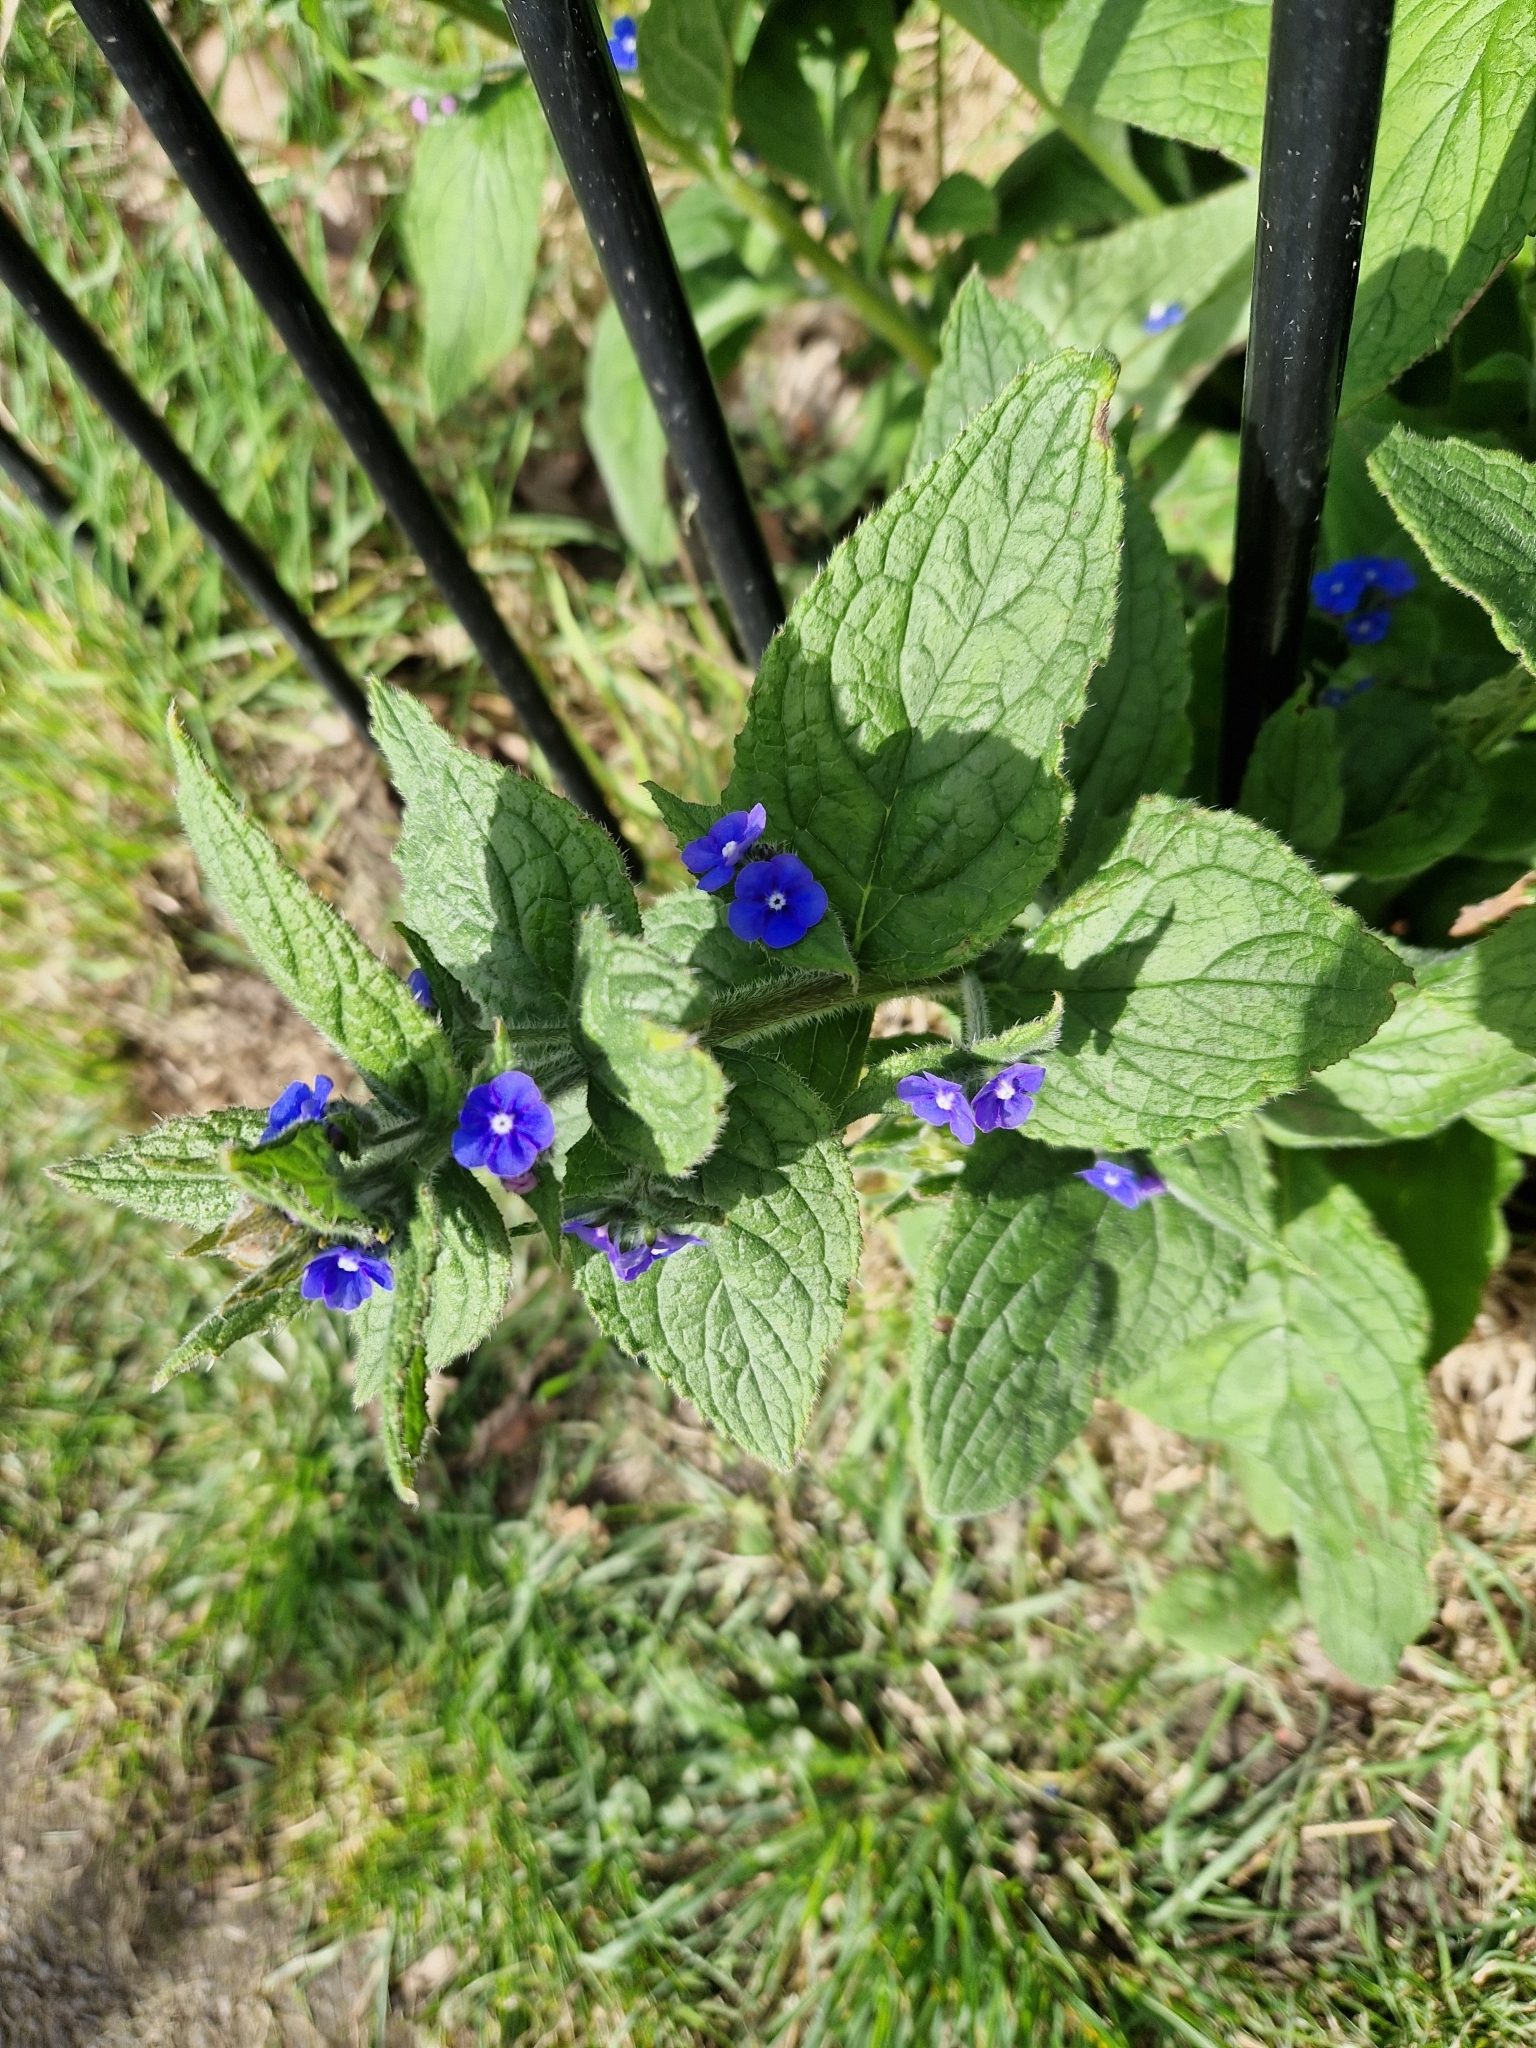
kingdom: Plantae
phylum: Tracheophyta
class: Magnoliopsida
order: Boraginales
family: Boraginaceae
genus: Pentaglottis
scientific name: Pentaglottis sempervirens
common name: Green alkanet
